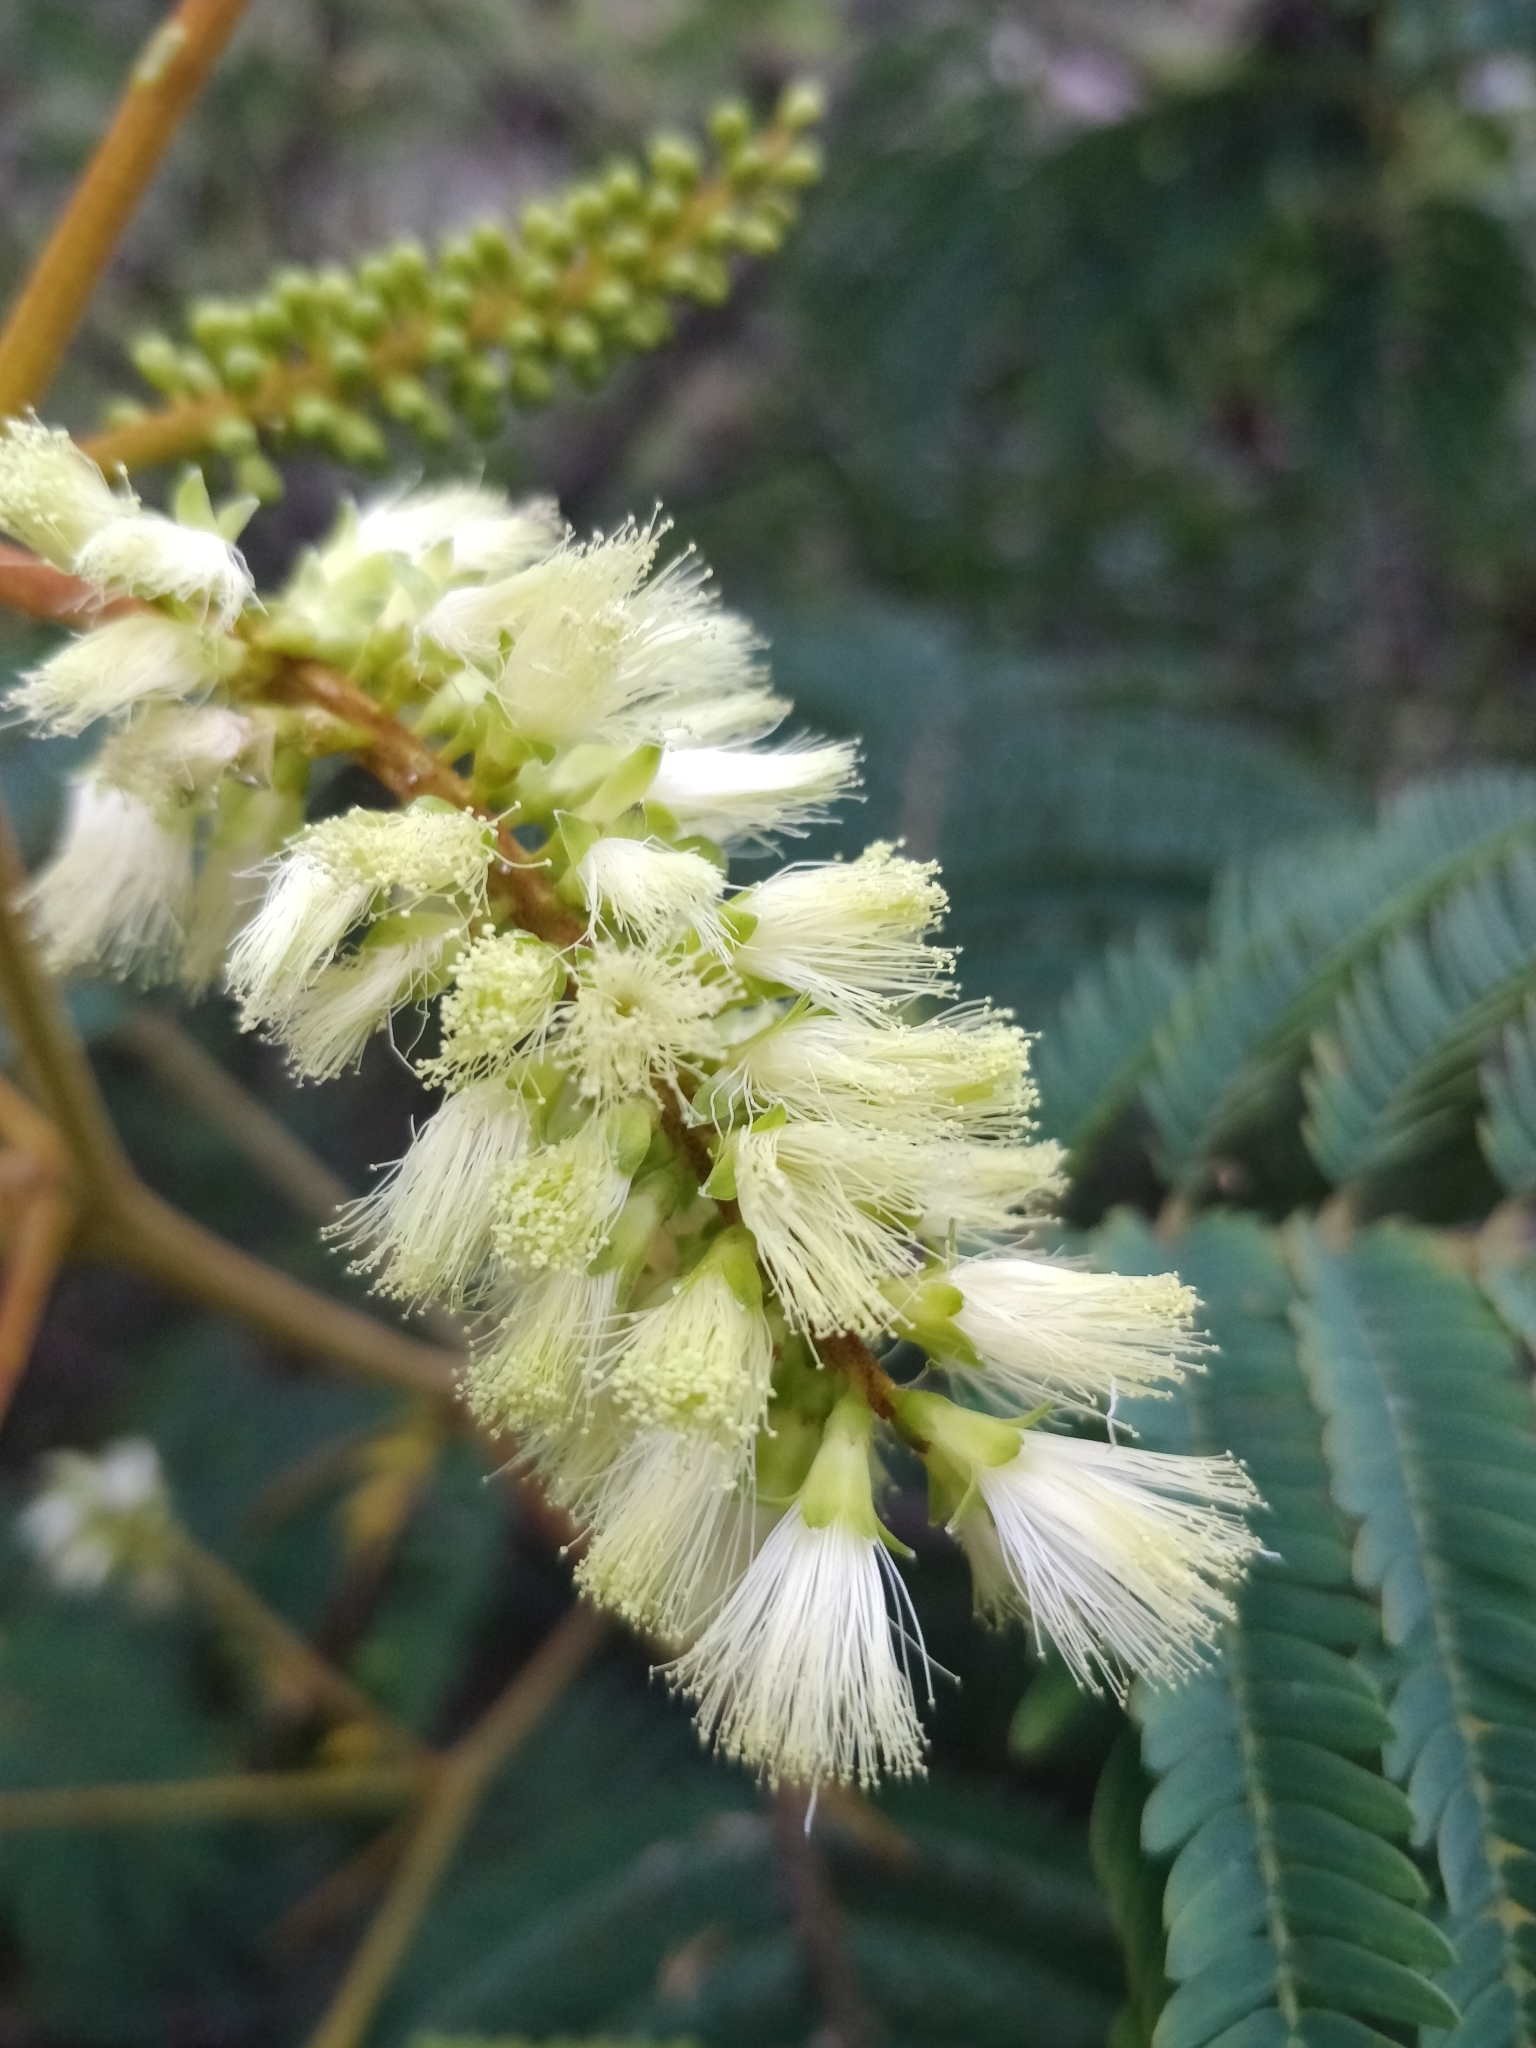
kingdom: Plantae
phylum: Tracheophyta
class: Magnoliopsida
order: Fabales
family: Fabaceae
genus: Paraserianthes
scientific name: Paraserianthes lophantha
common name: Plume albizia
